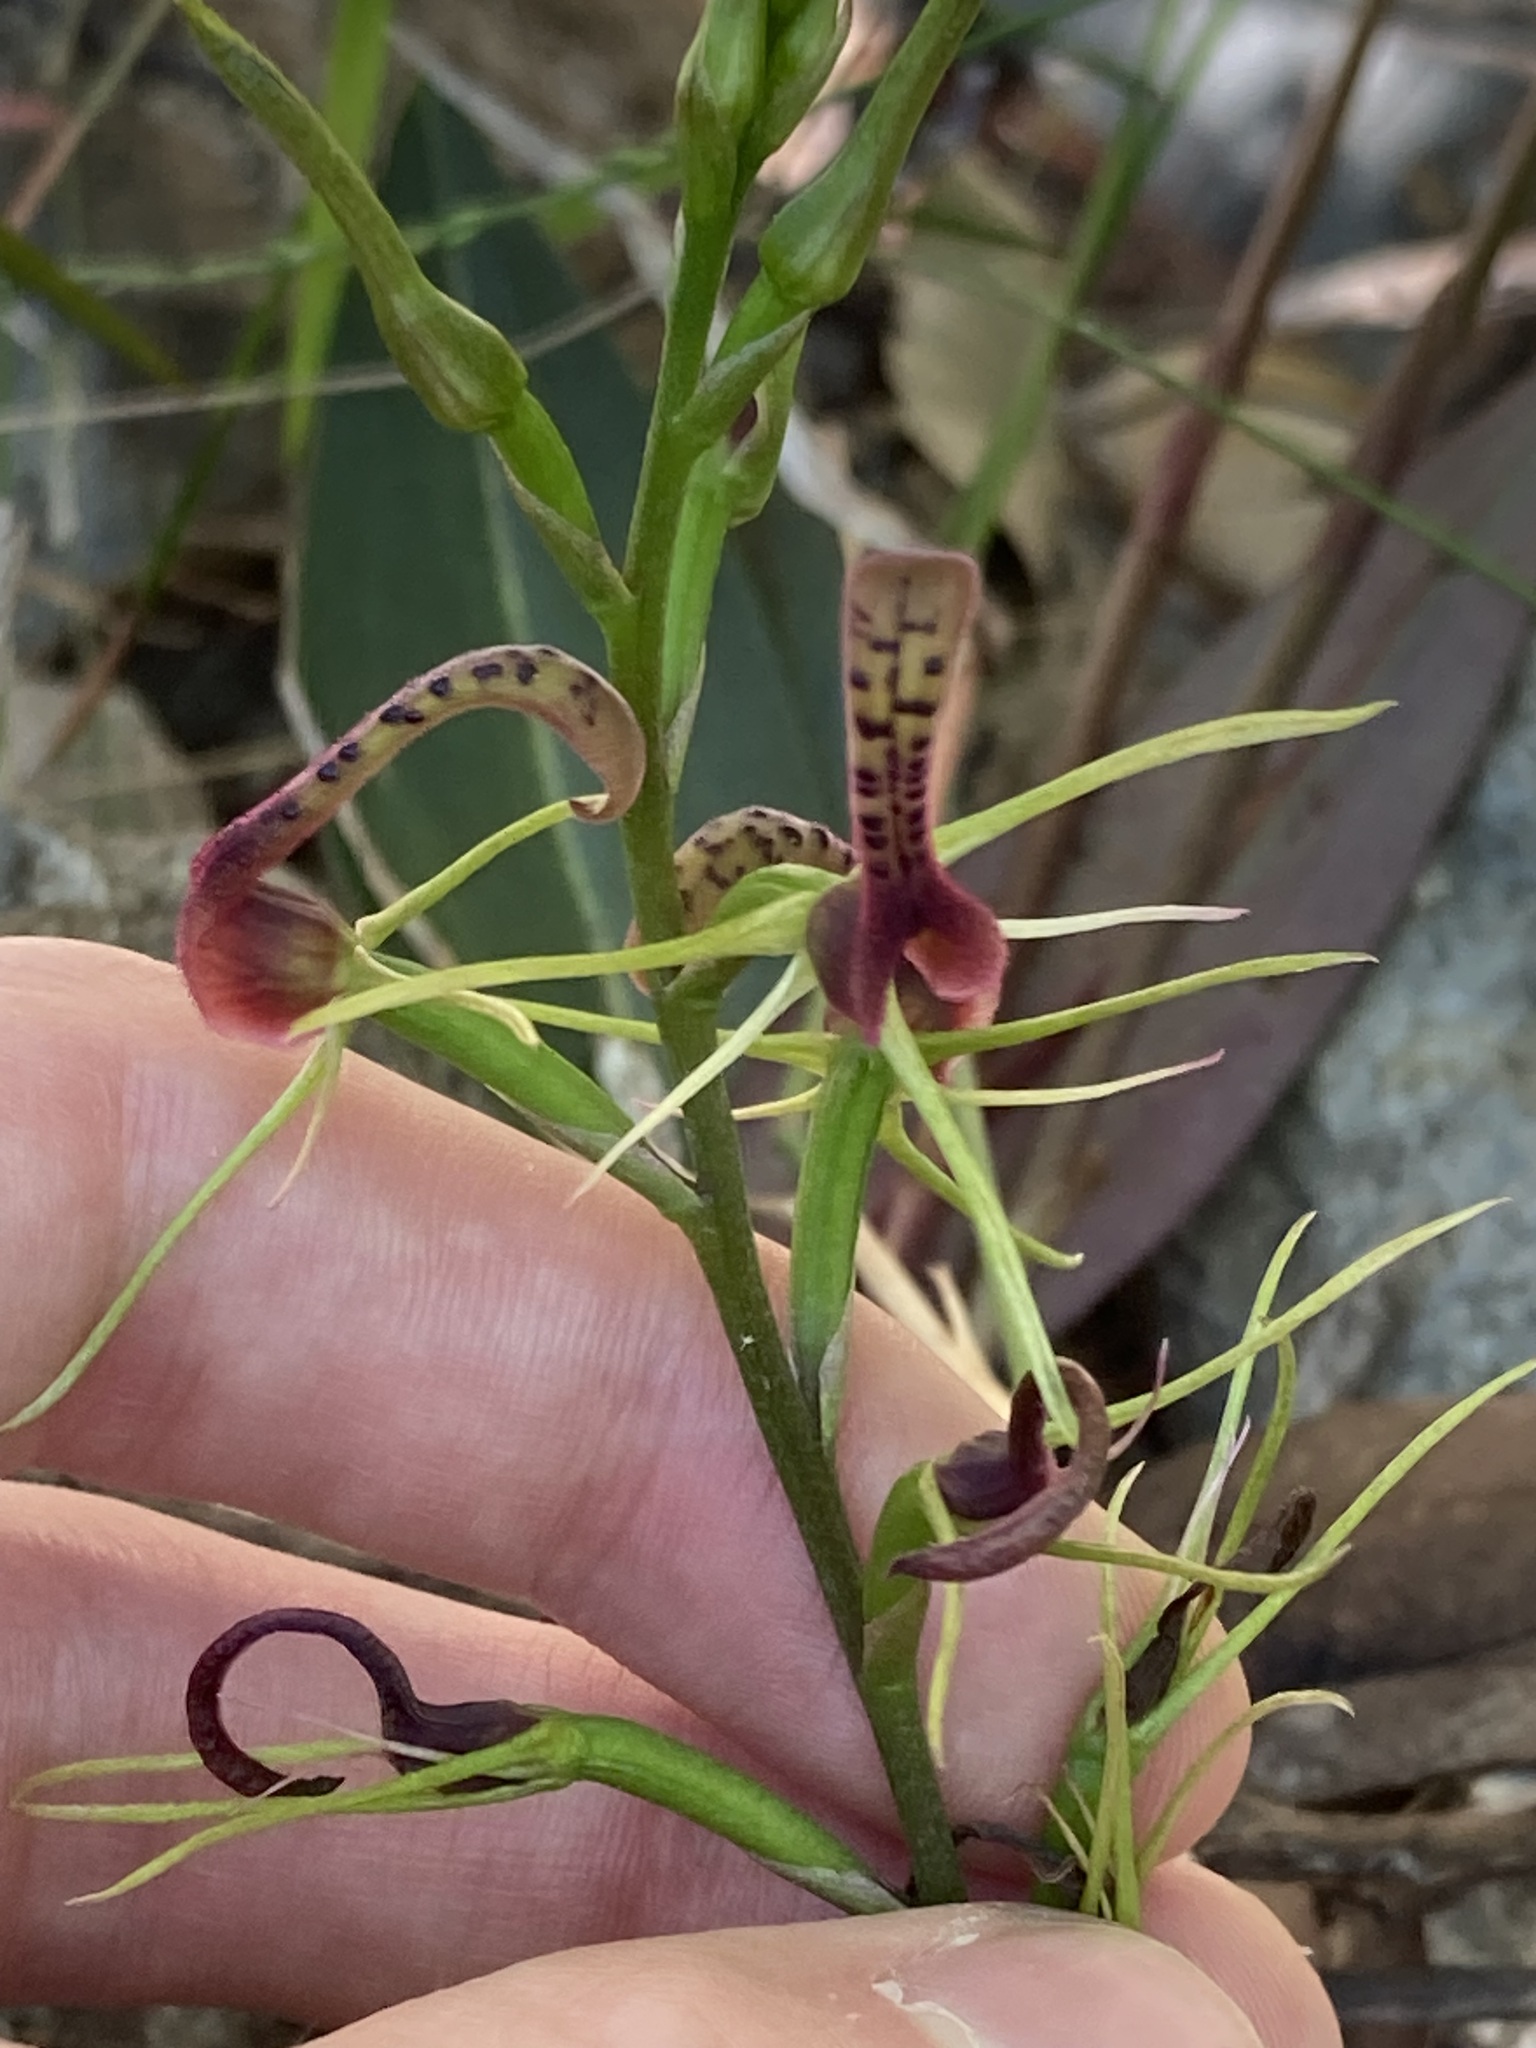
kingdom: Plantae
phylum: Tracheophyta
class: Liliopsida
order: Asparagales
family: Orchidaceae
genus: Cryptostylis
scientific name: Cryptostylis leptochila
